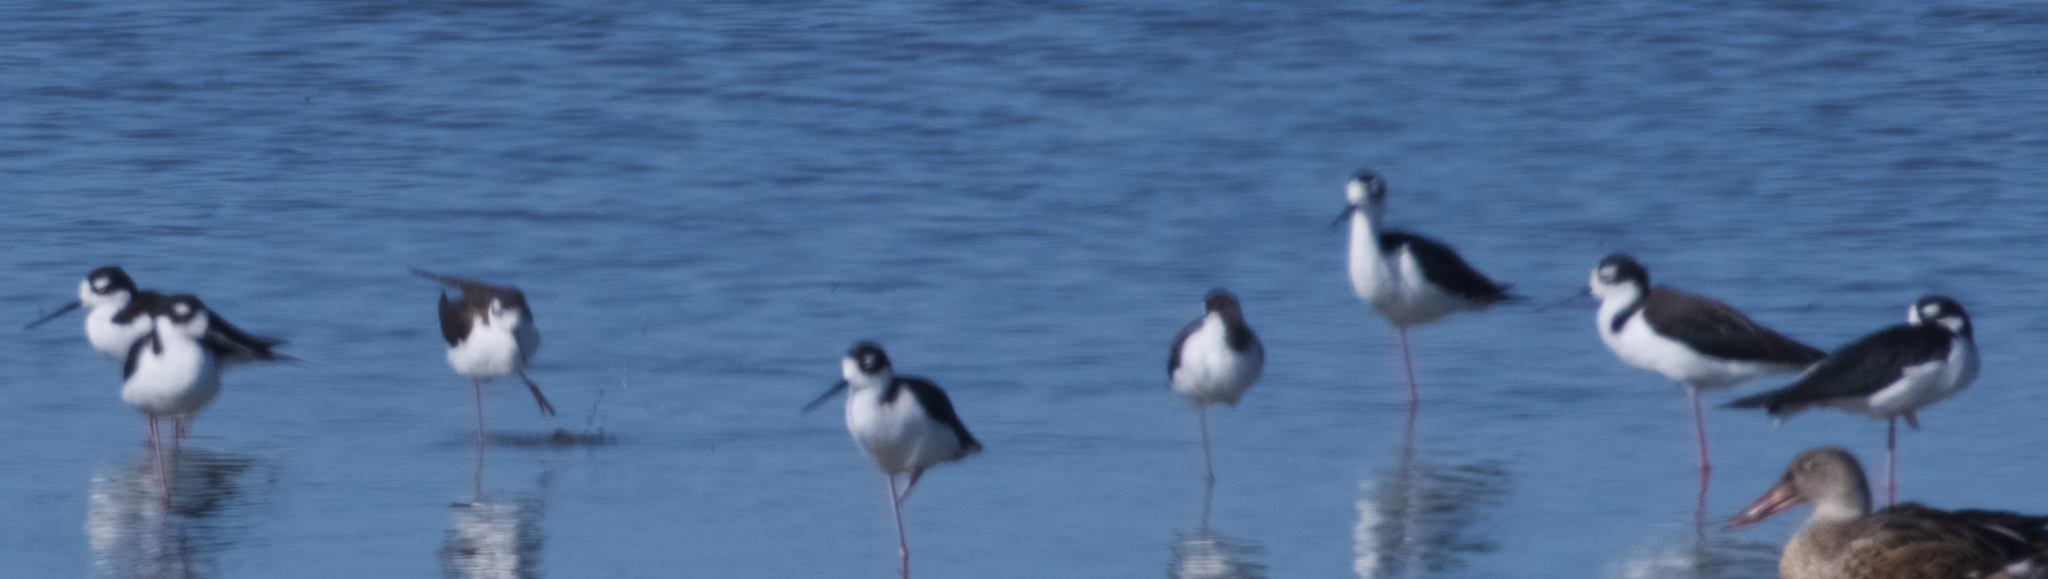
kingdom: Animalia
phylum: Chordata
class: Aves
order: Charadriiformes
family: Recurvirostridae
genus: Himantopus
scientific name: Himantopus mexicanus
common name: Black-necked stilt
